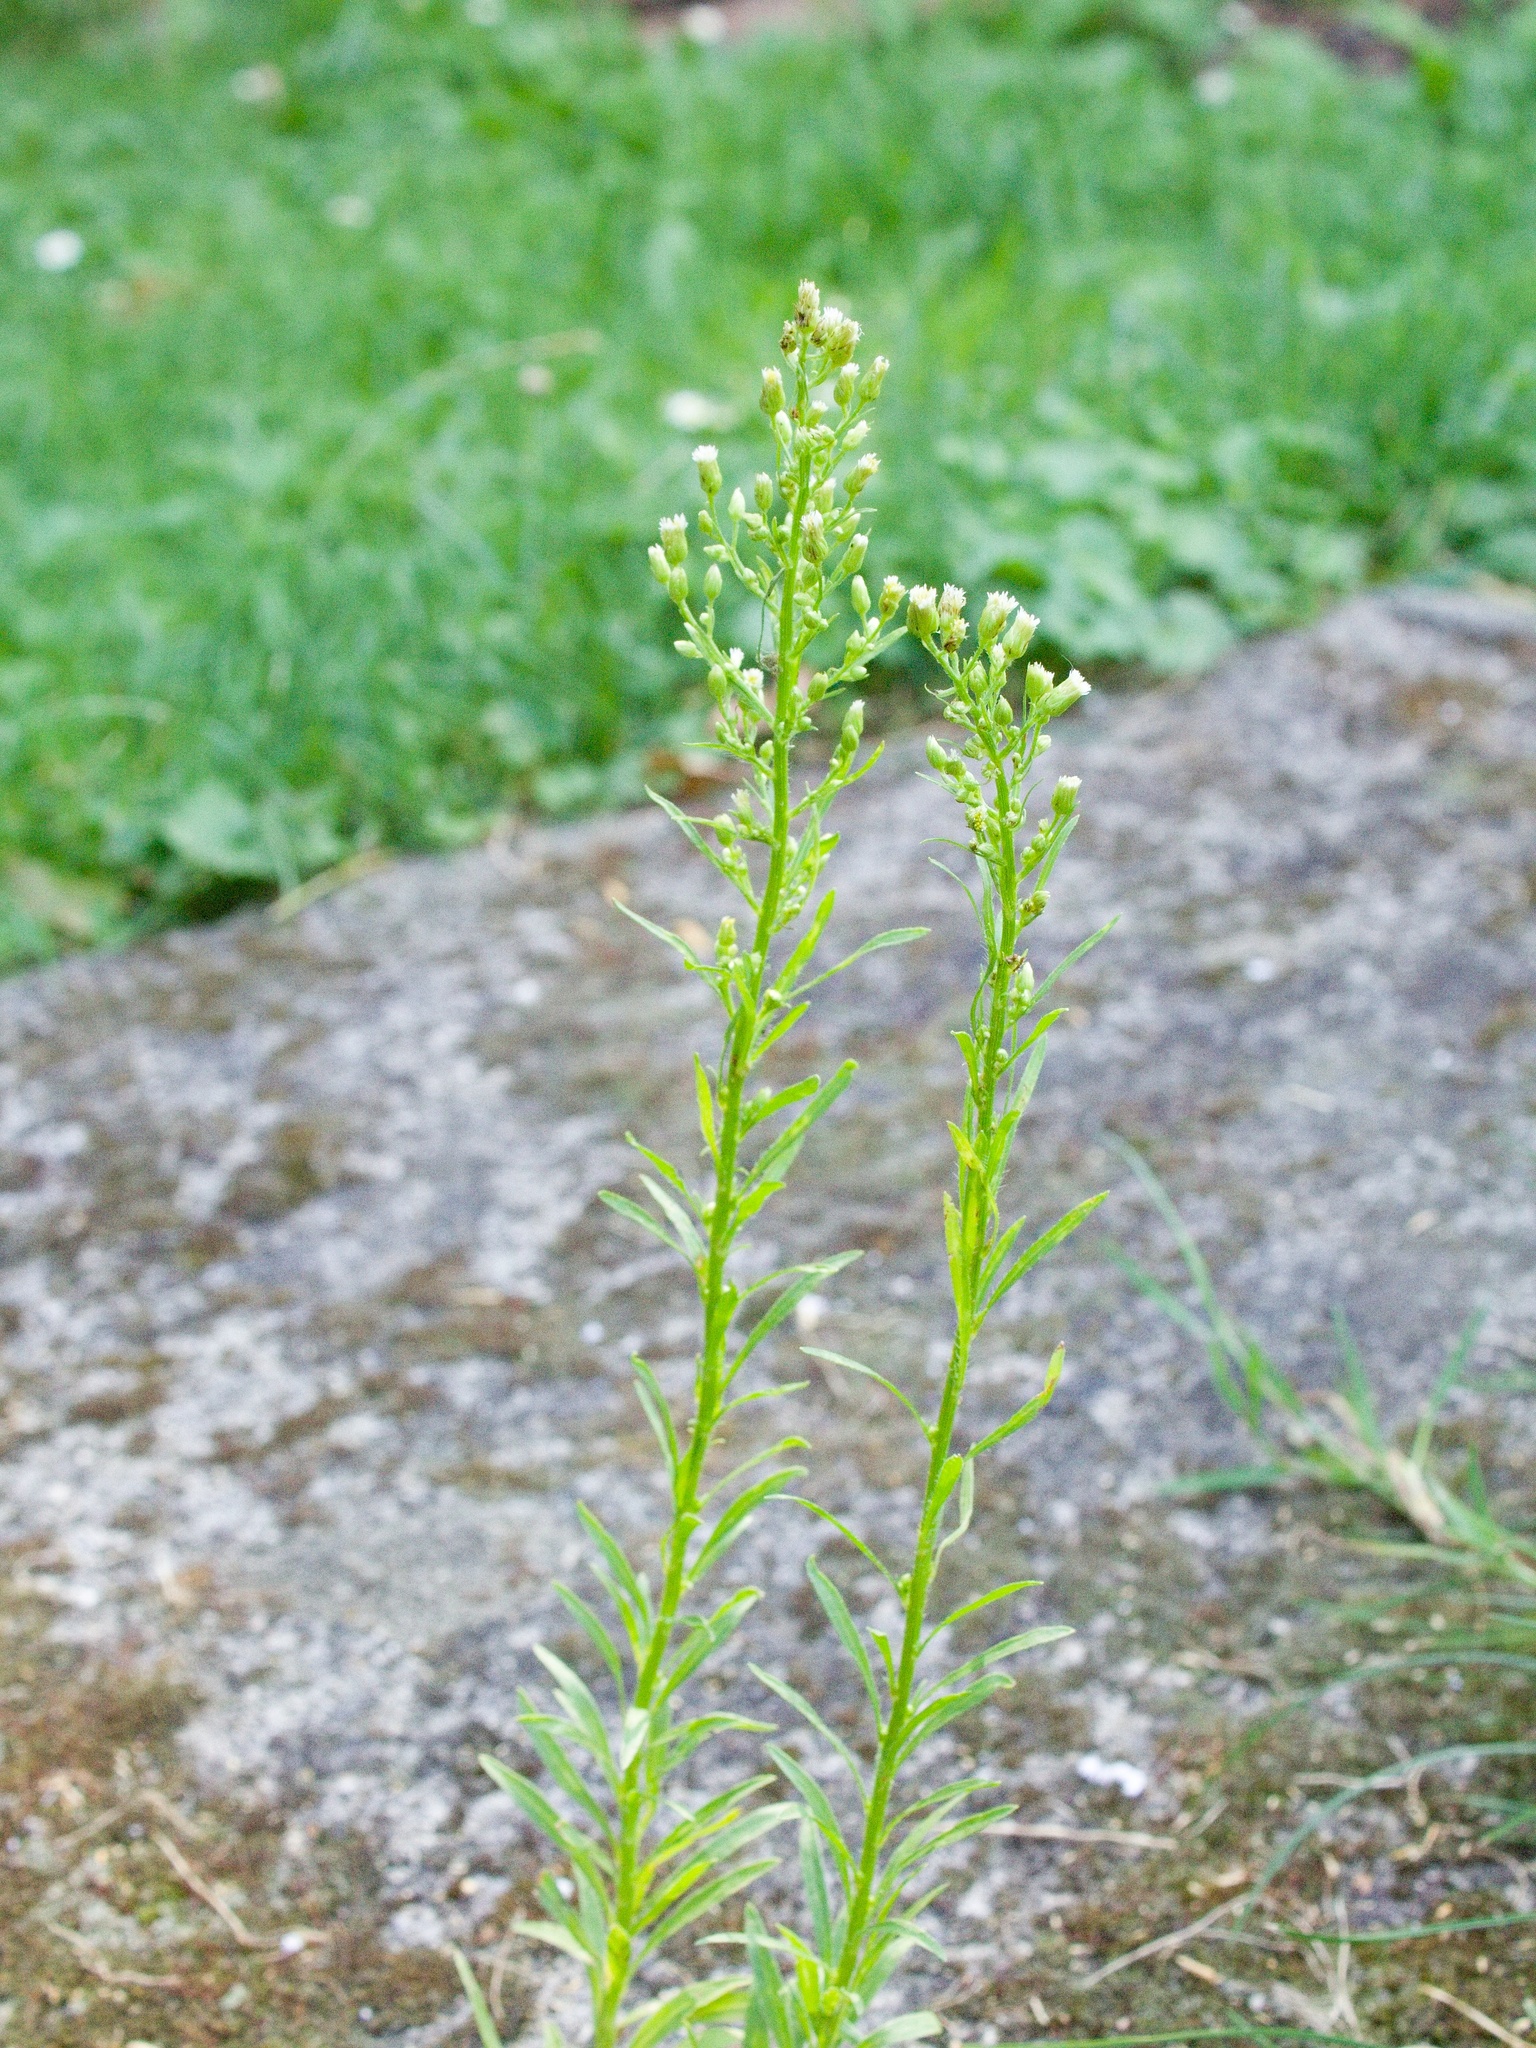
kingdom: Plantae
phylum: Tracheophyta
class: Magnoliopsida
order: Asterales
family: Asteraceae
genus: Erigeron
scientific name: Erigeron canadensis
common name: Canadian fleabane
